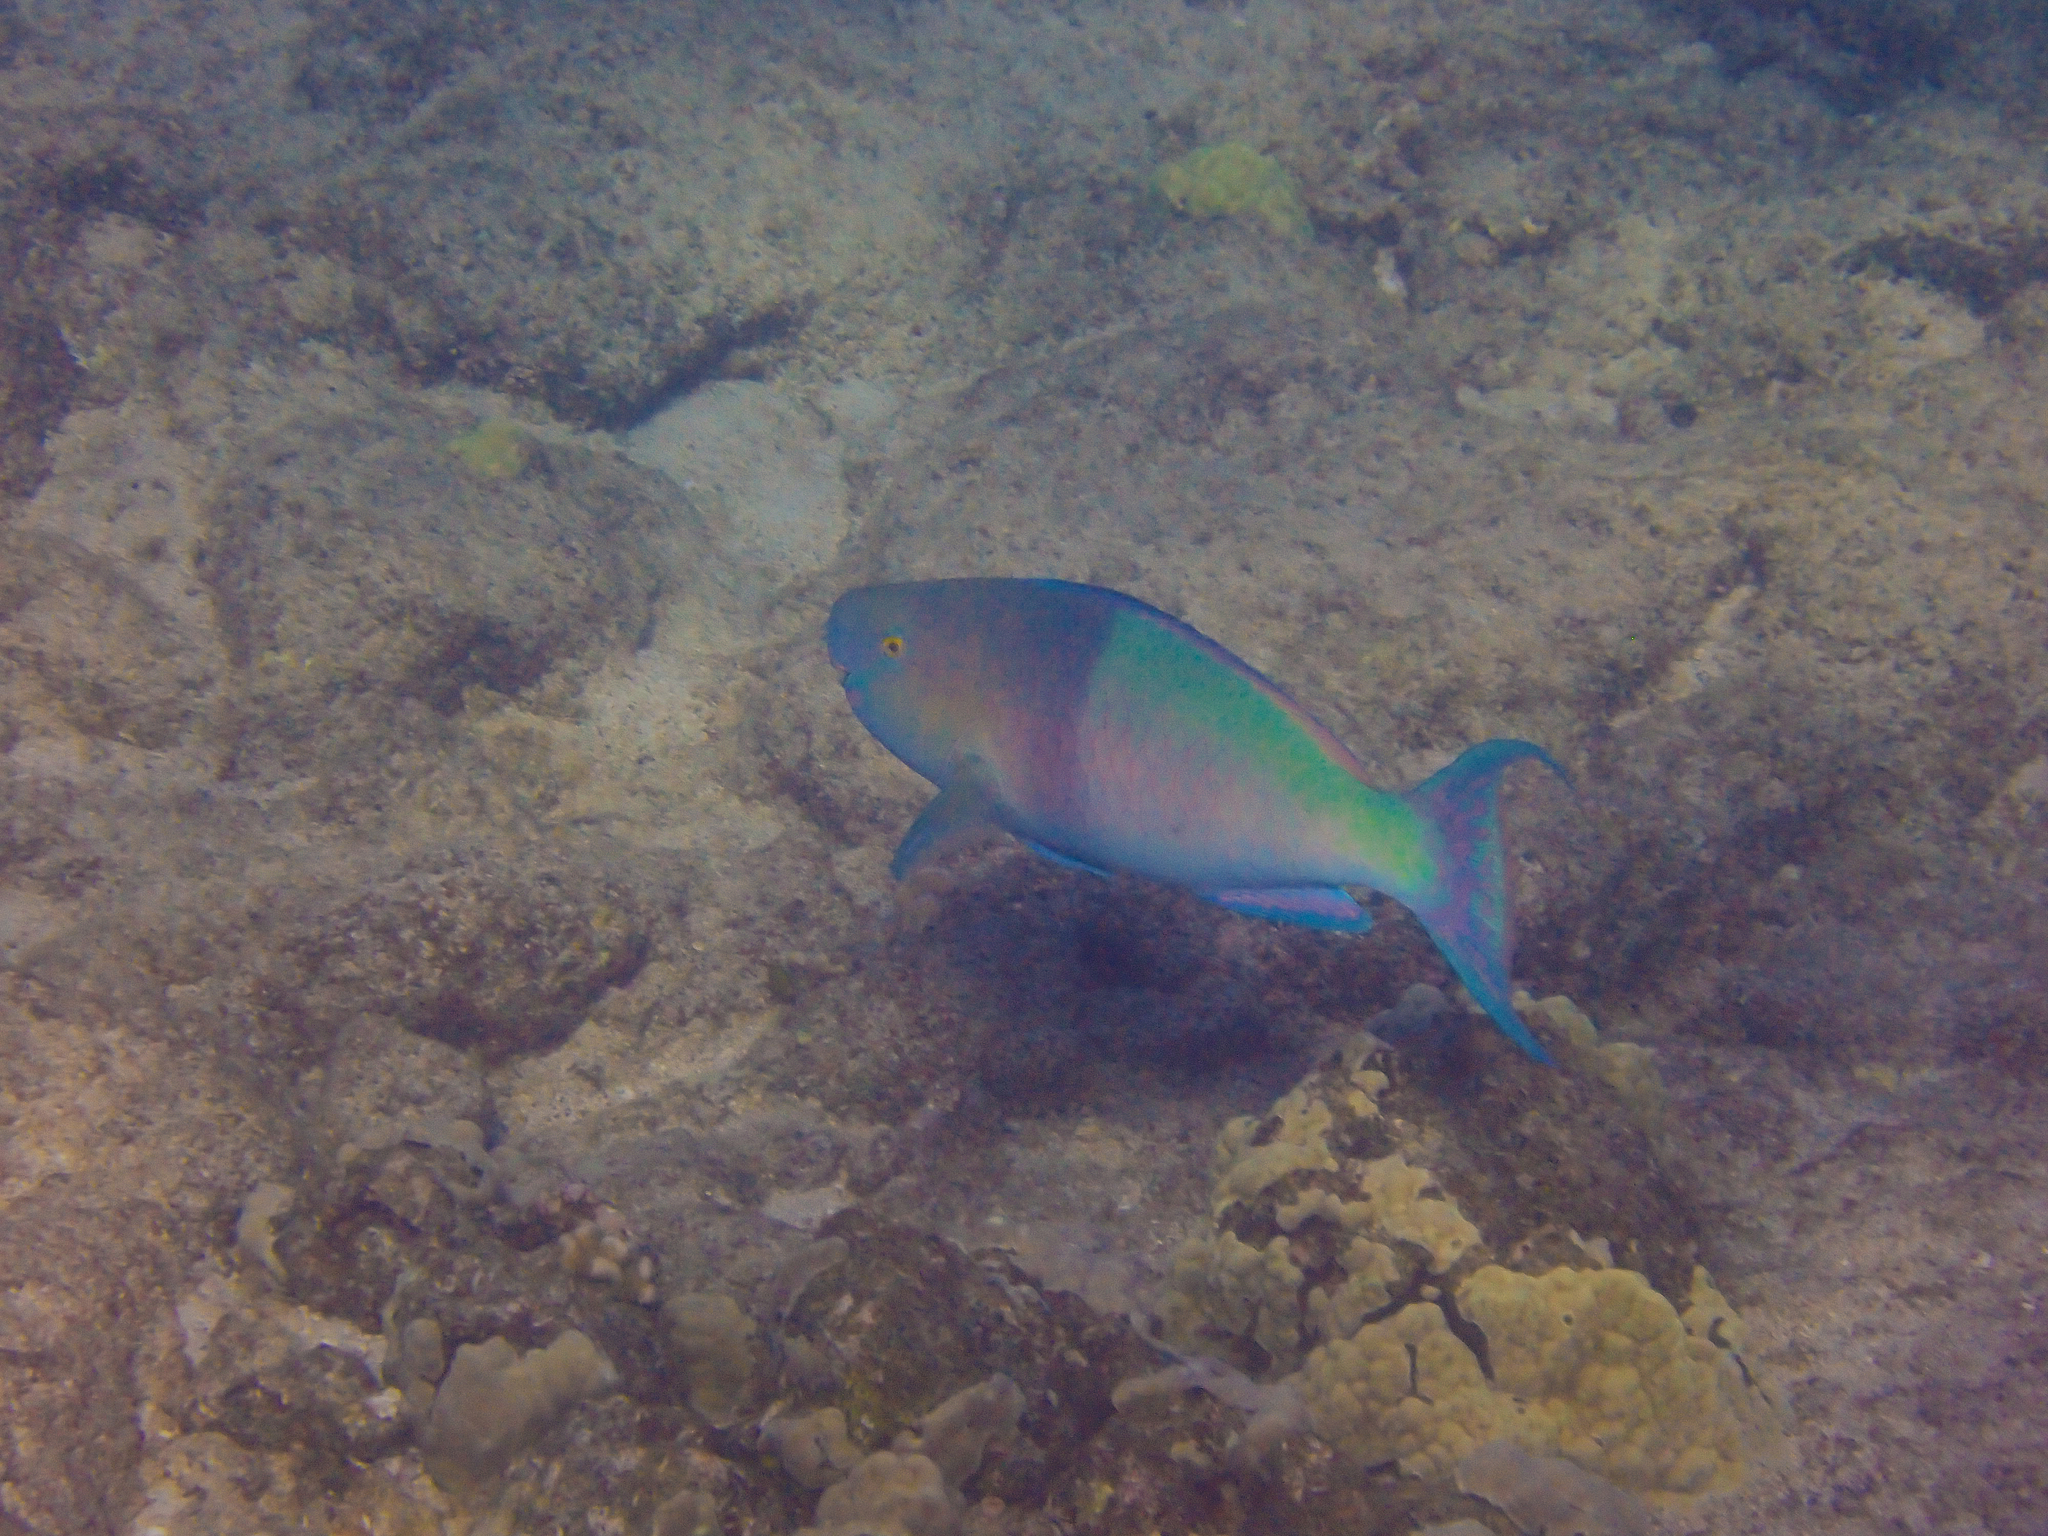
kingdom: Animalia
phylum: Chordata
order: Perciformes
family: Scaridae
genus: Scarus
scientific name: Scarus rubroviolaceus
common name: Ember parrotfish
